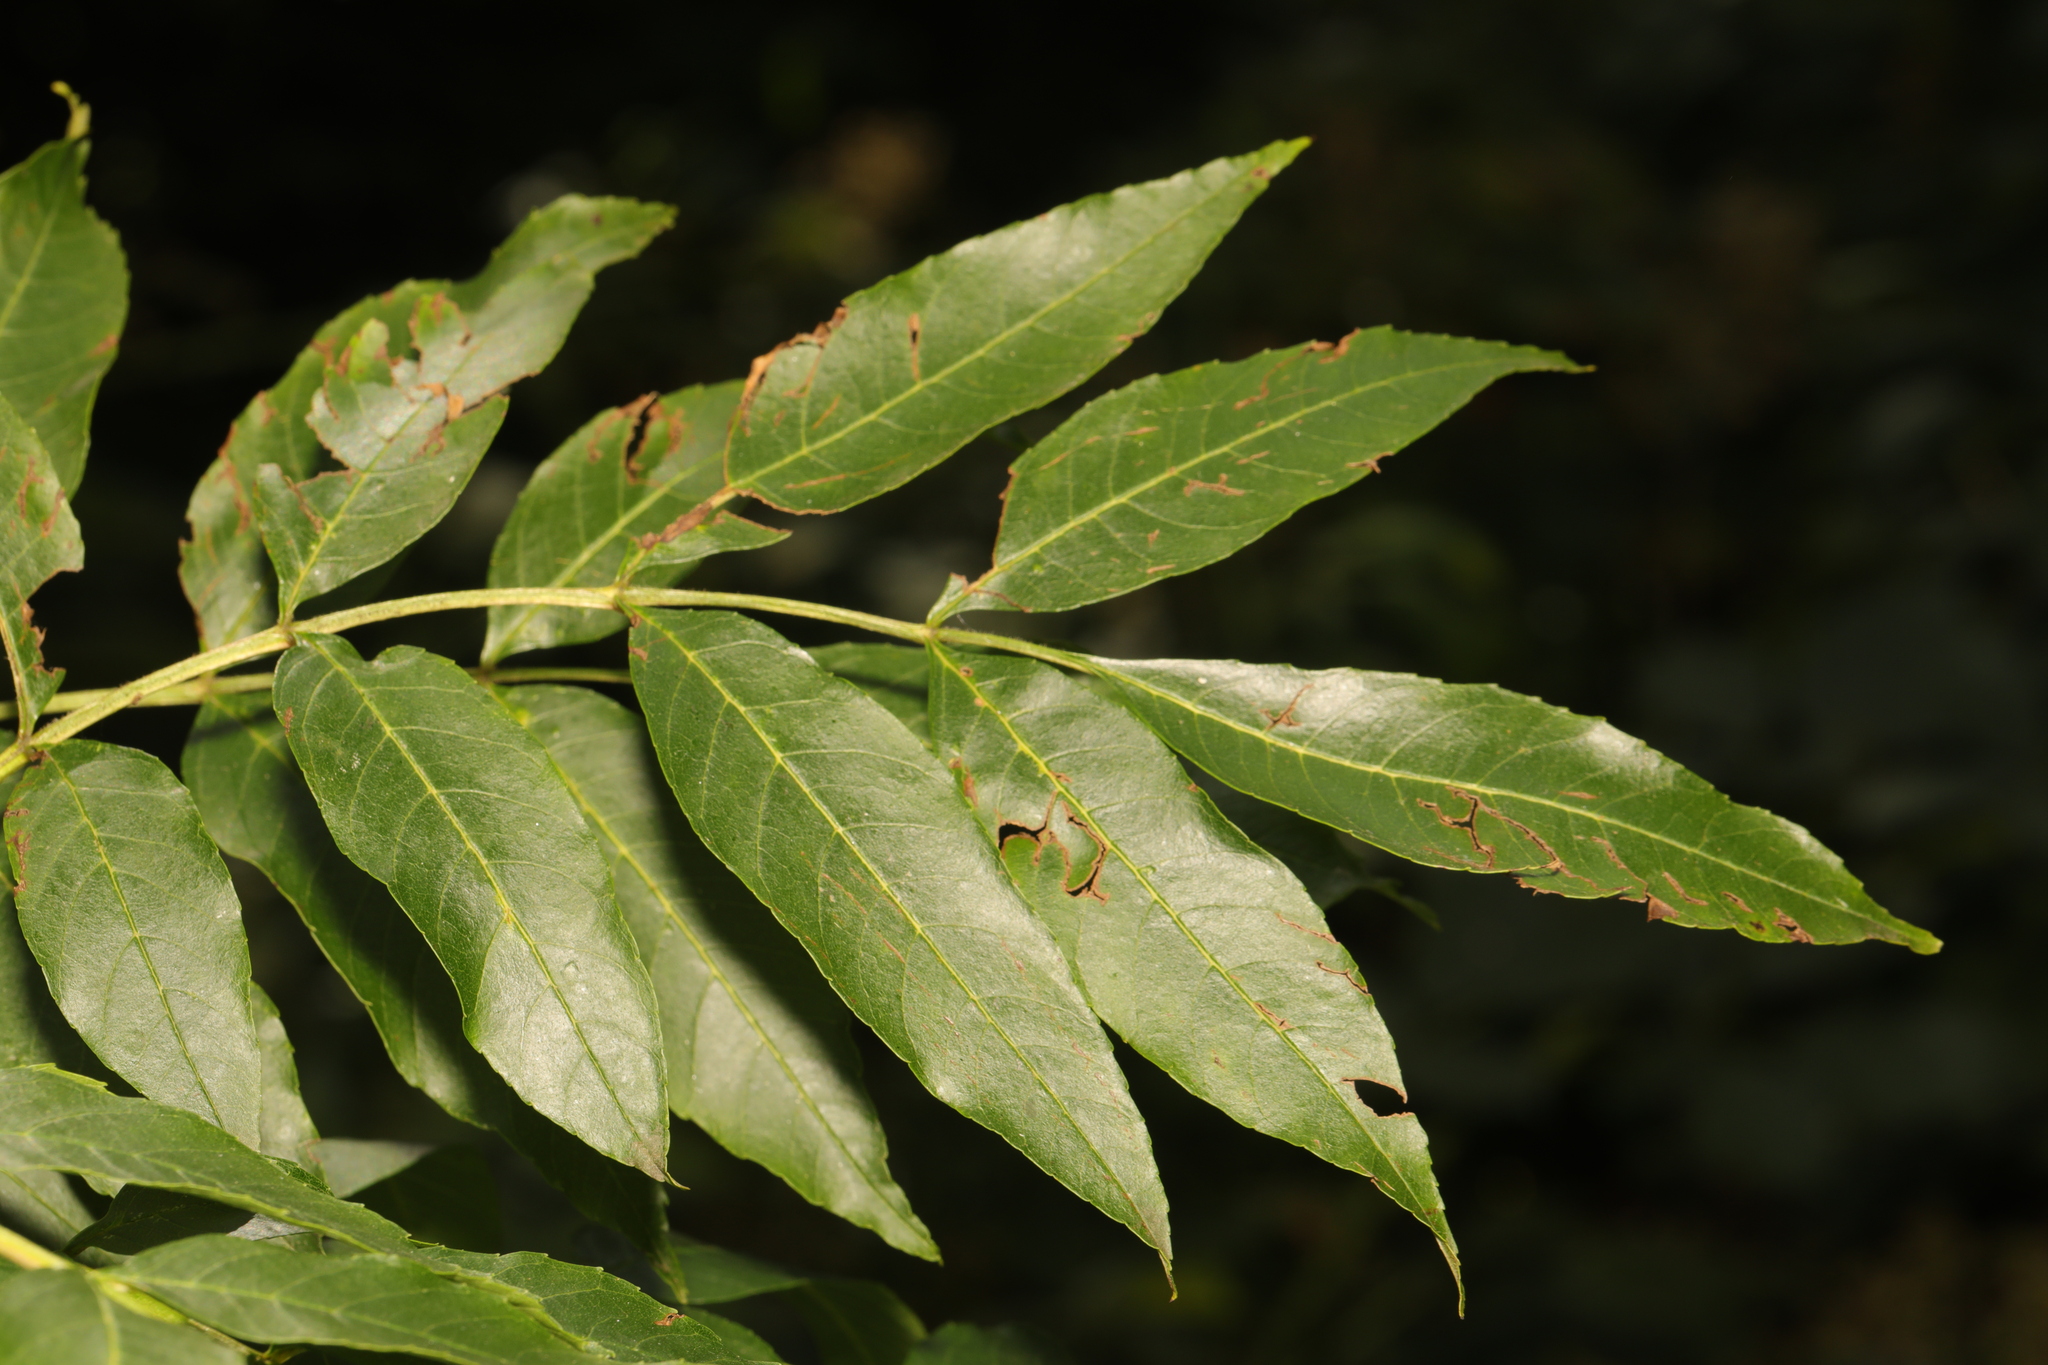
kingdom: Plantae
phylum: Tracheophyta
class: Magnoliopsida
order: Lamiales
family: Oleaceae
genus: Fraxinus
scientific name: Fraxinus excelsior
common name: European ash
